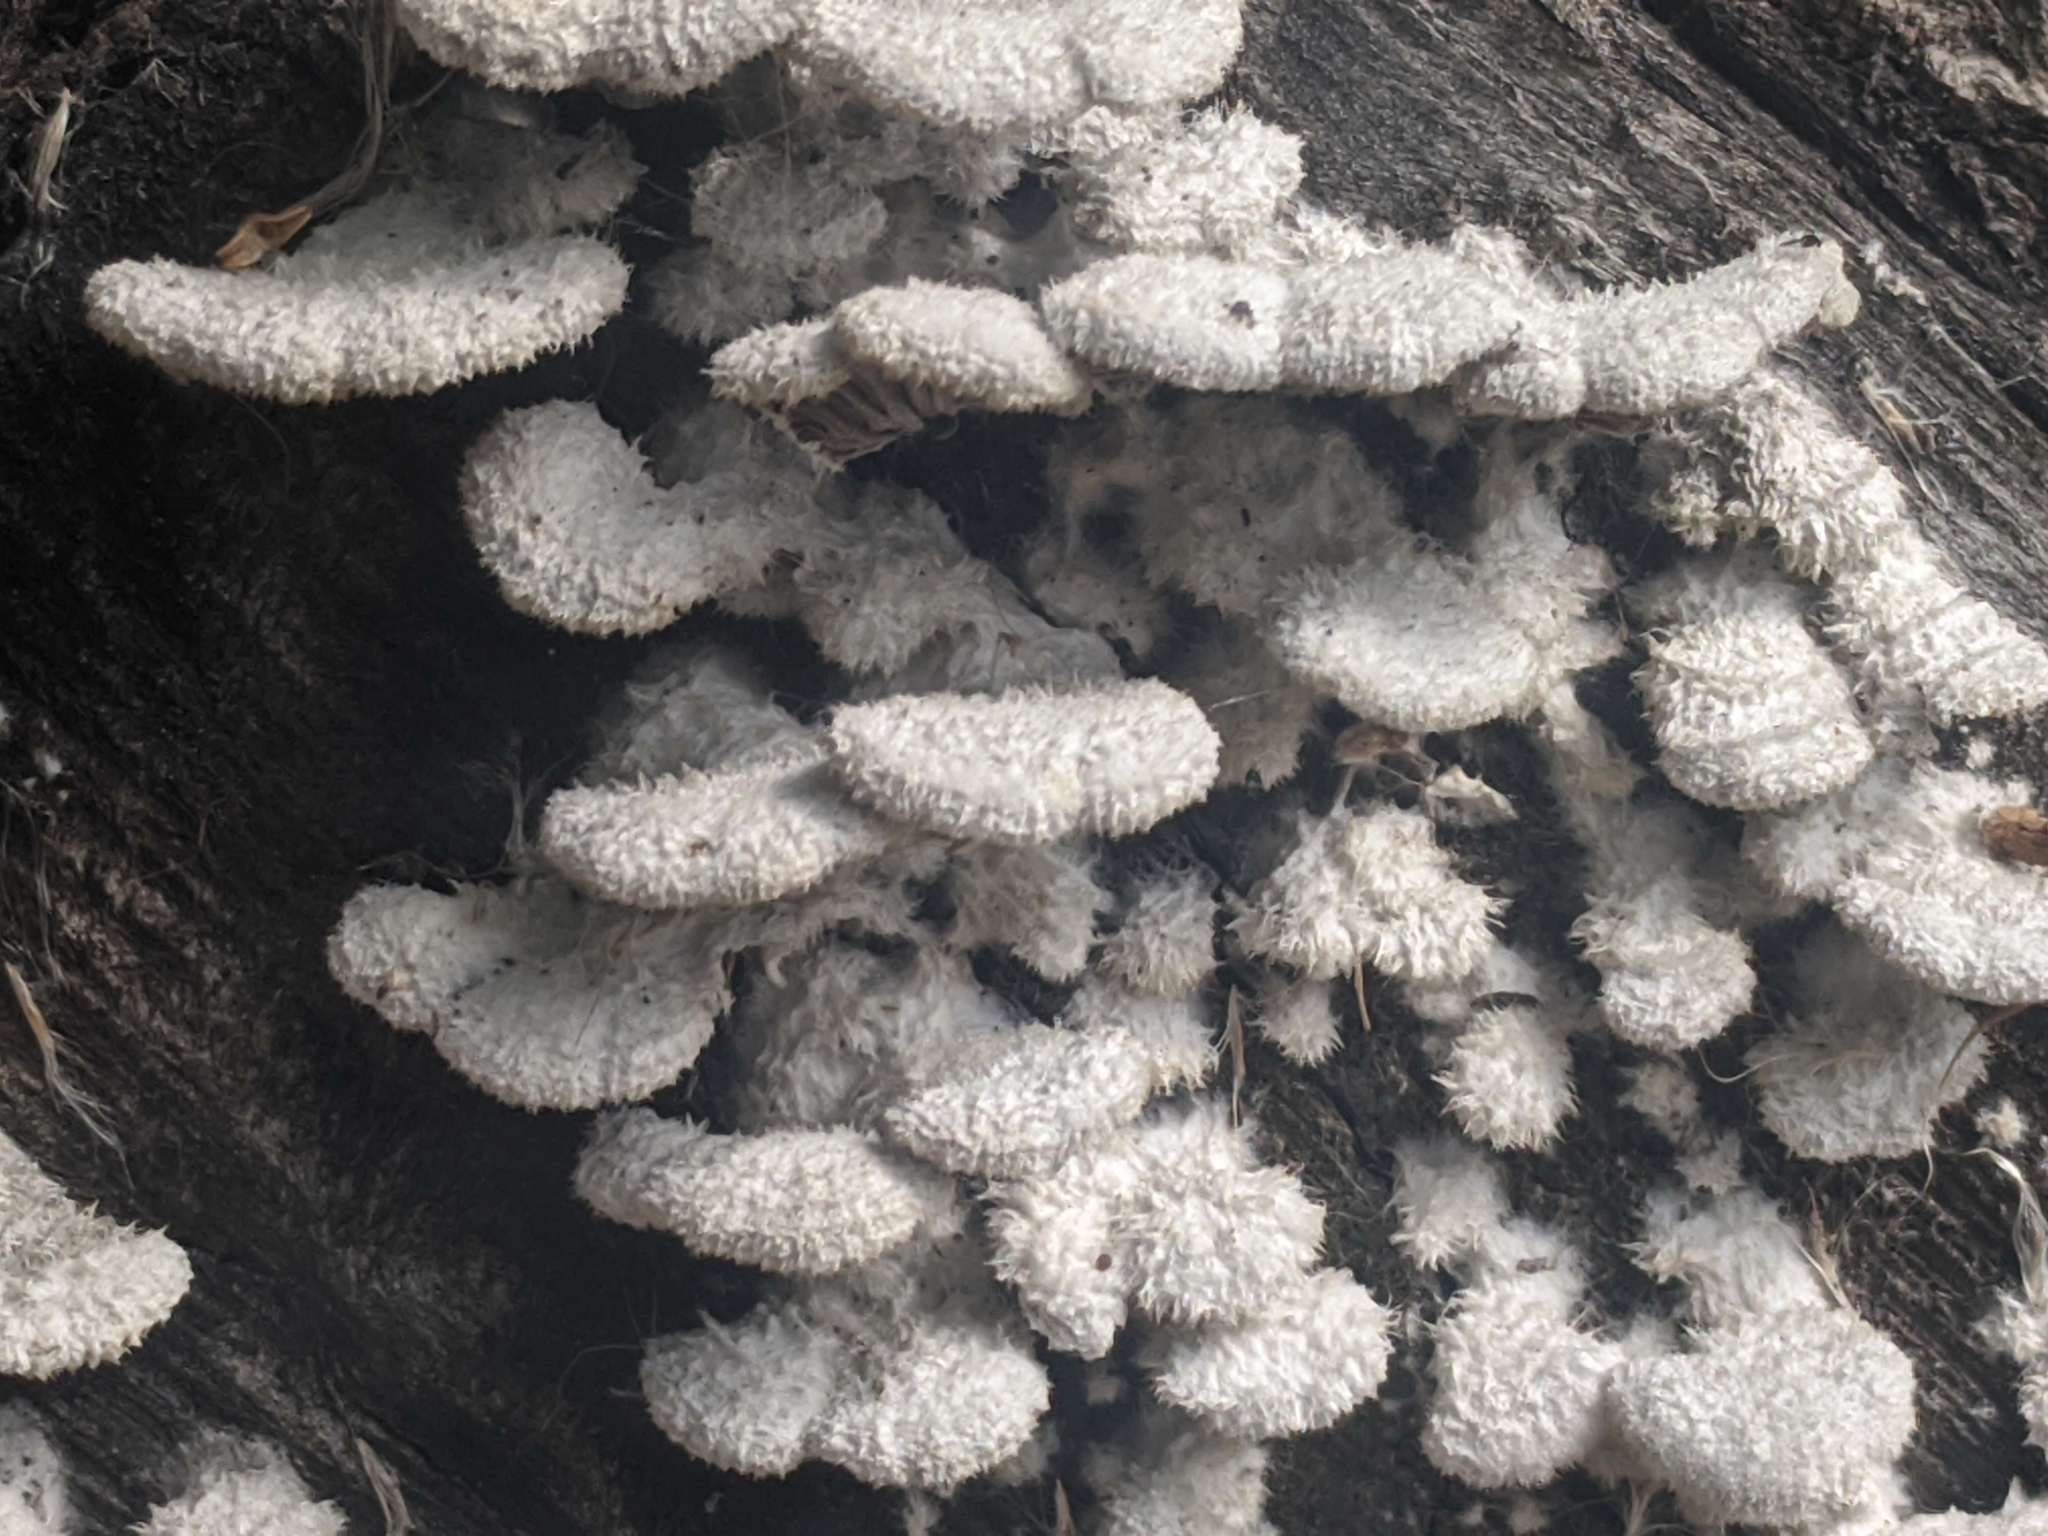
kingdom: Fungi
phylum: Basidiomycota
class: Agaricomycetes
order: Agaricales
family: Schizophyllaceae
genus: Schizophyllum
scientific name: Schizophyllum commune
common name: Common porecrust
